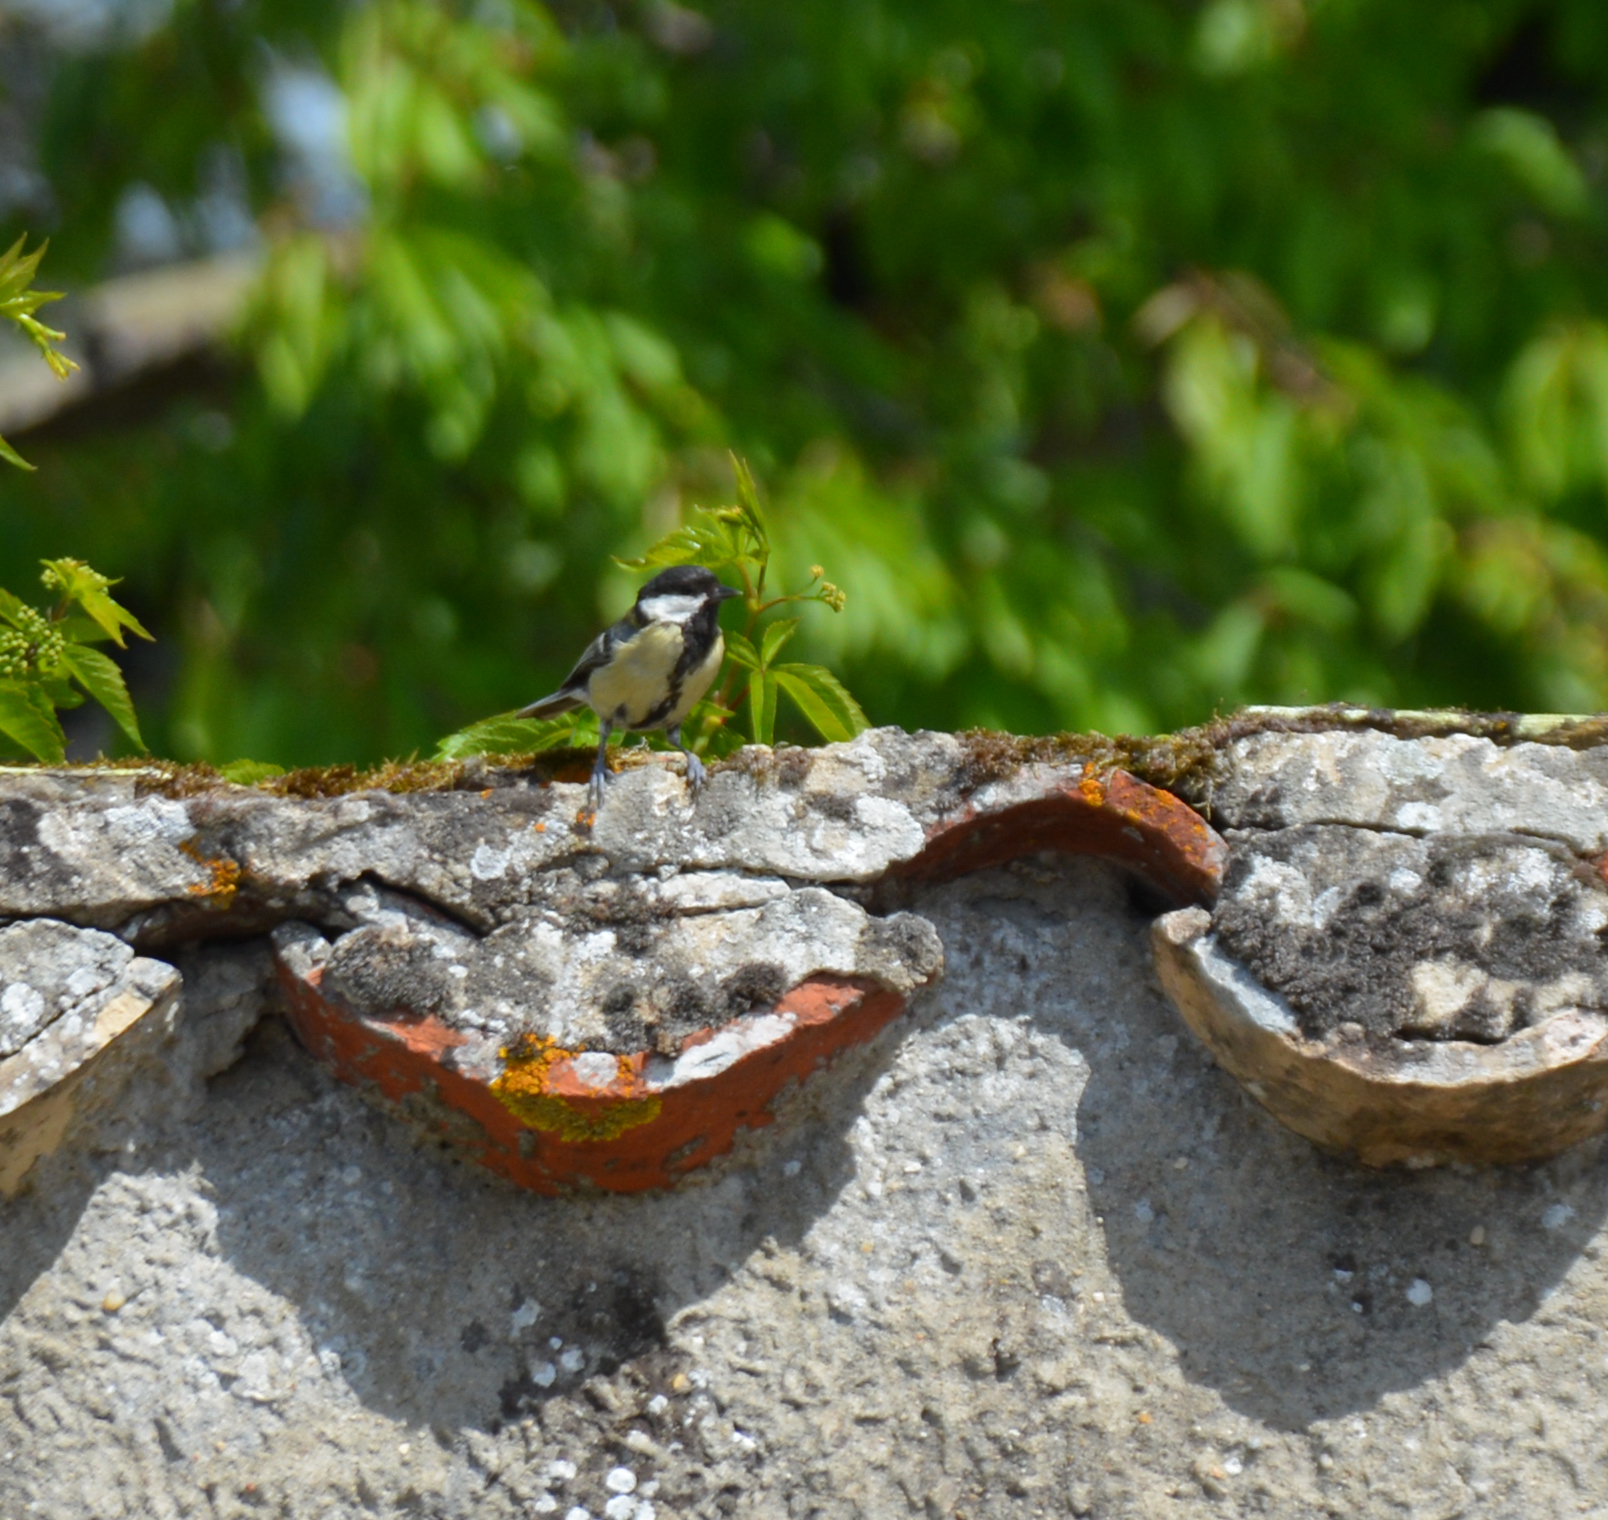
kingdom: Animalia
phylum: Chordata
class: Aves
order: Passeriformes
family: Paridae
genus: Parus
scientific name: Parus major
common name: Great tit
